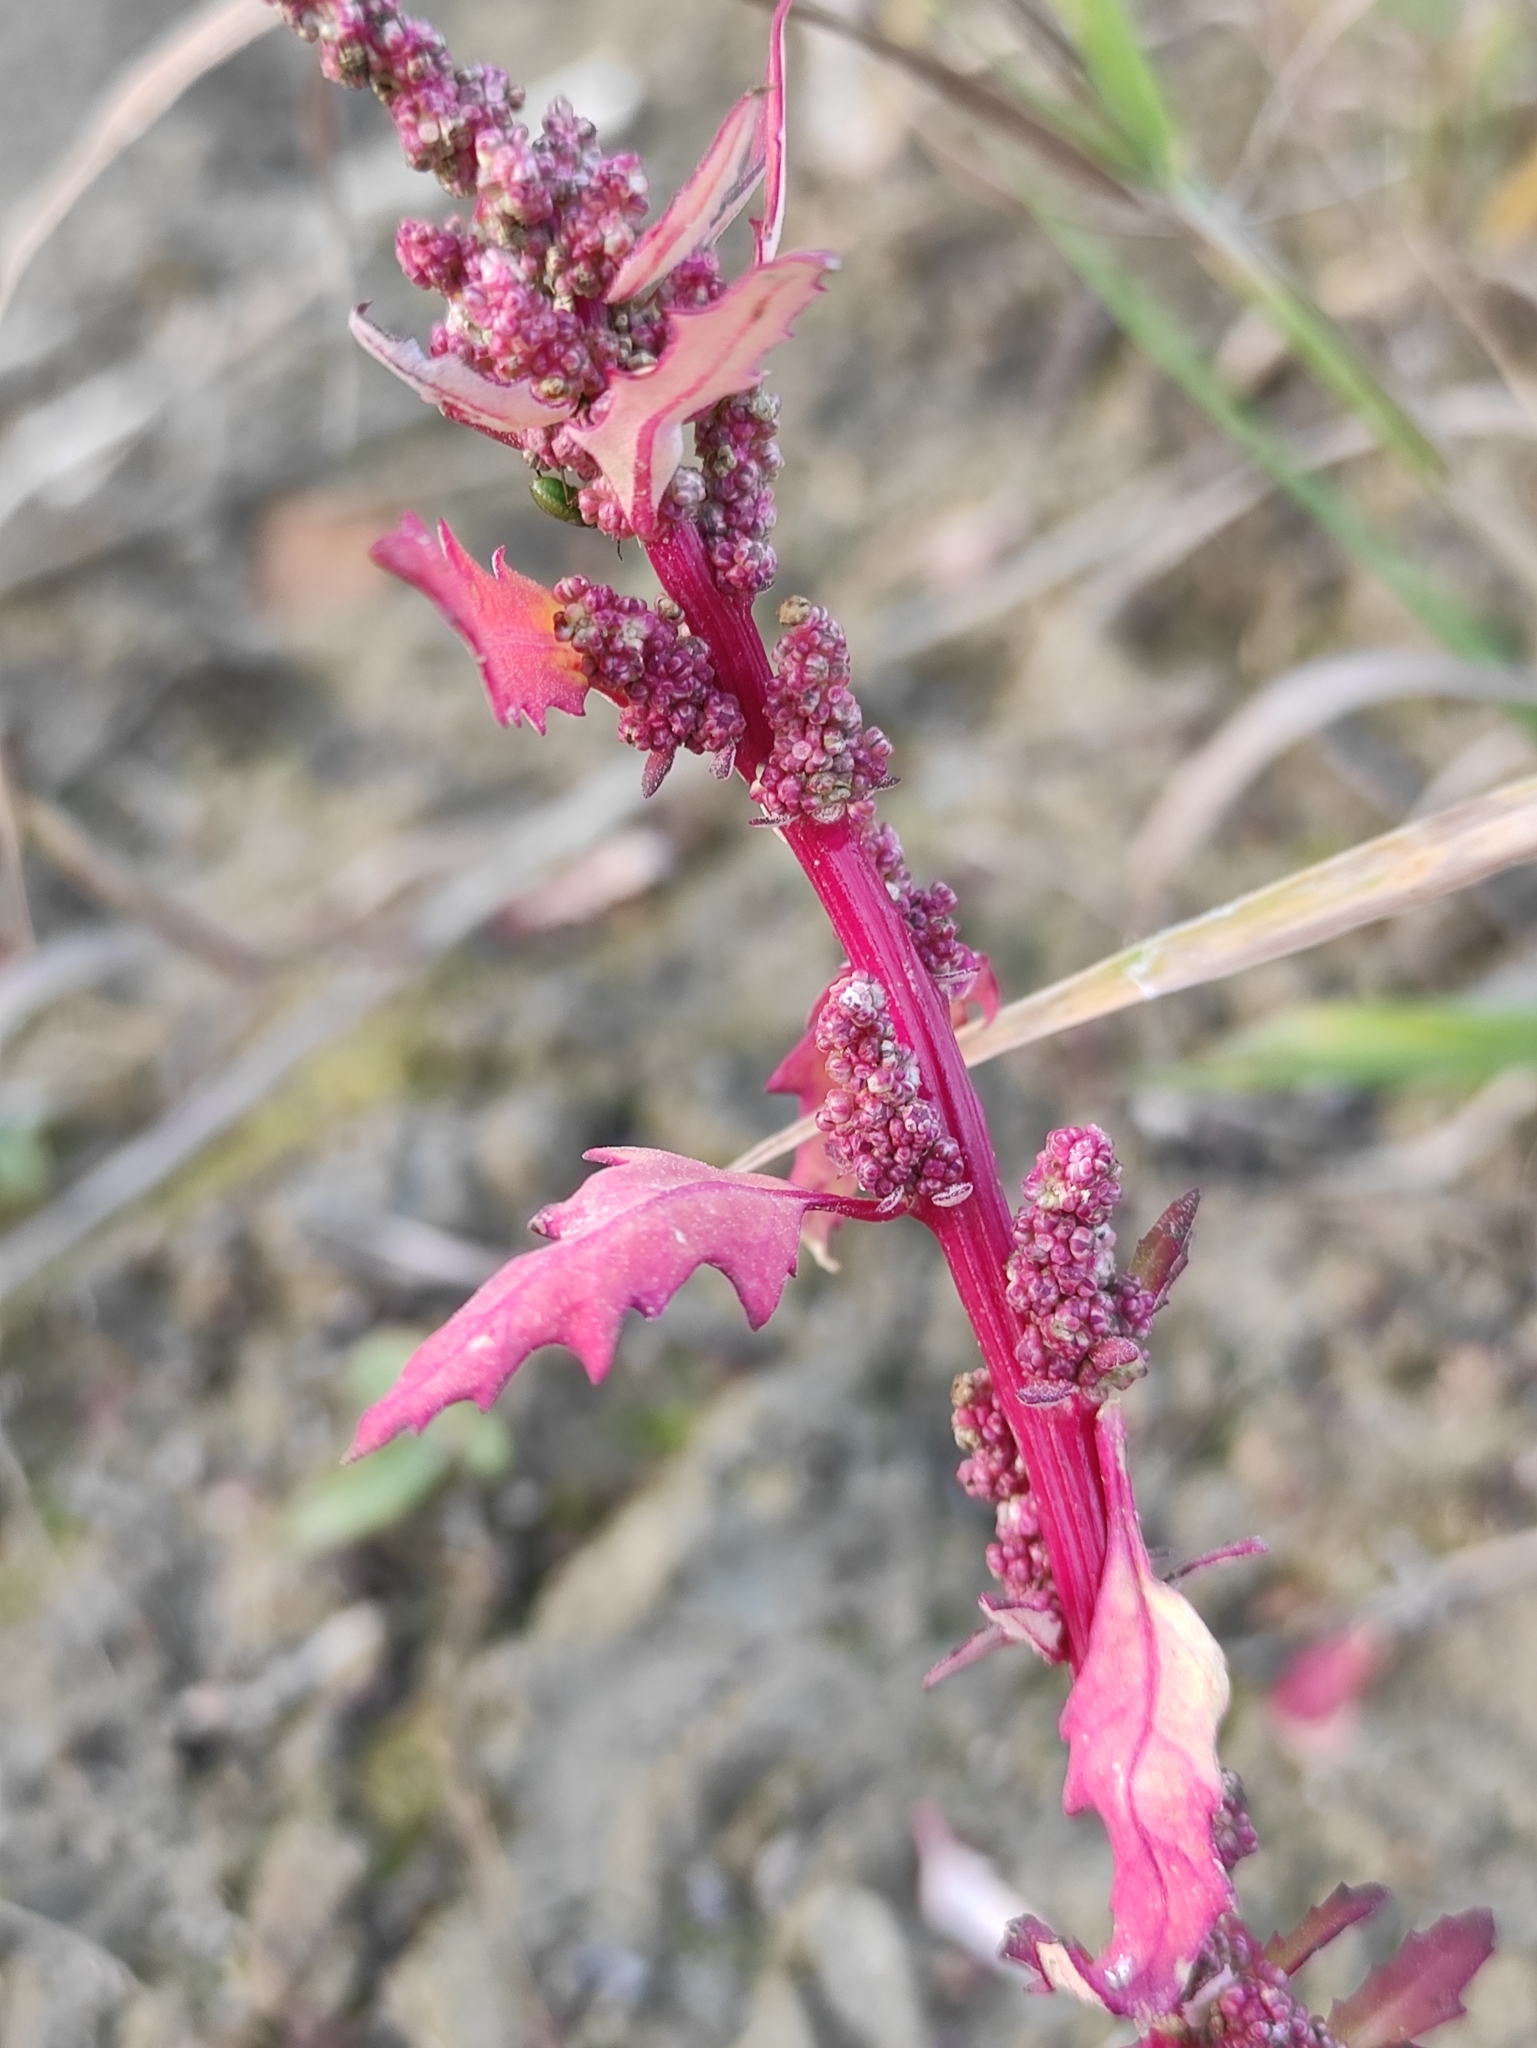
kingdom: Plantae
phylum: Tracheophyta
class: Magnoliopsida
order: Caryophyllales
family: Amaranthaceae
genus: Oxybasis
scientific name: Oxybasis glauca
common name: Glaucous goosefoot
